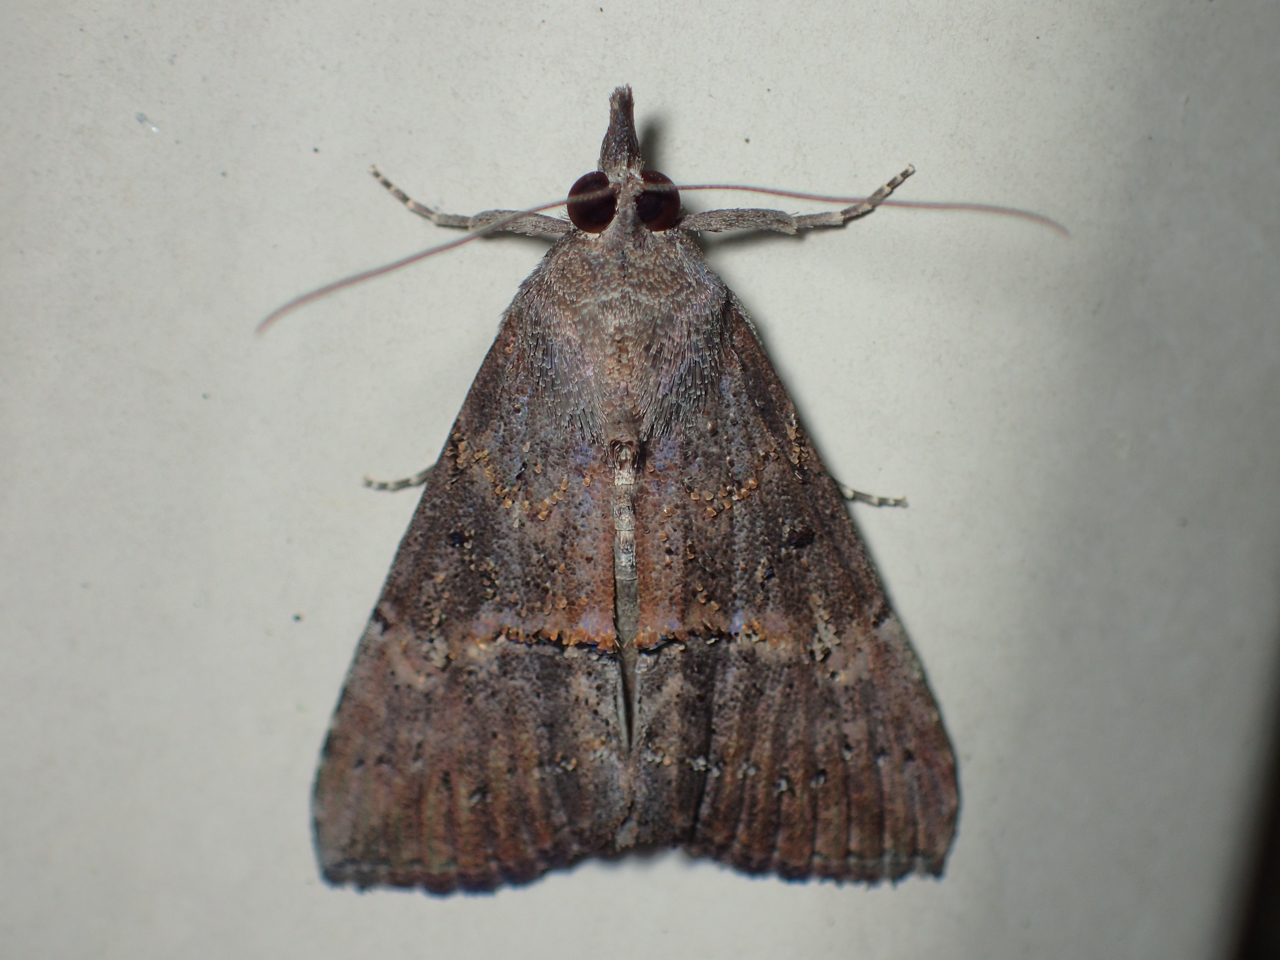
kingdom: Animalia
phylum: Arthropoda
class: Insecta
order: Lepidoptera
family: Erebidae
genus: Hypena
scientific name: Hypena scabra
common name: Green cloverworm
